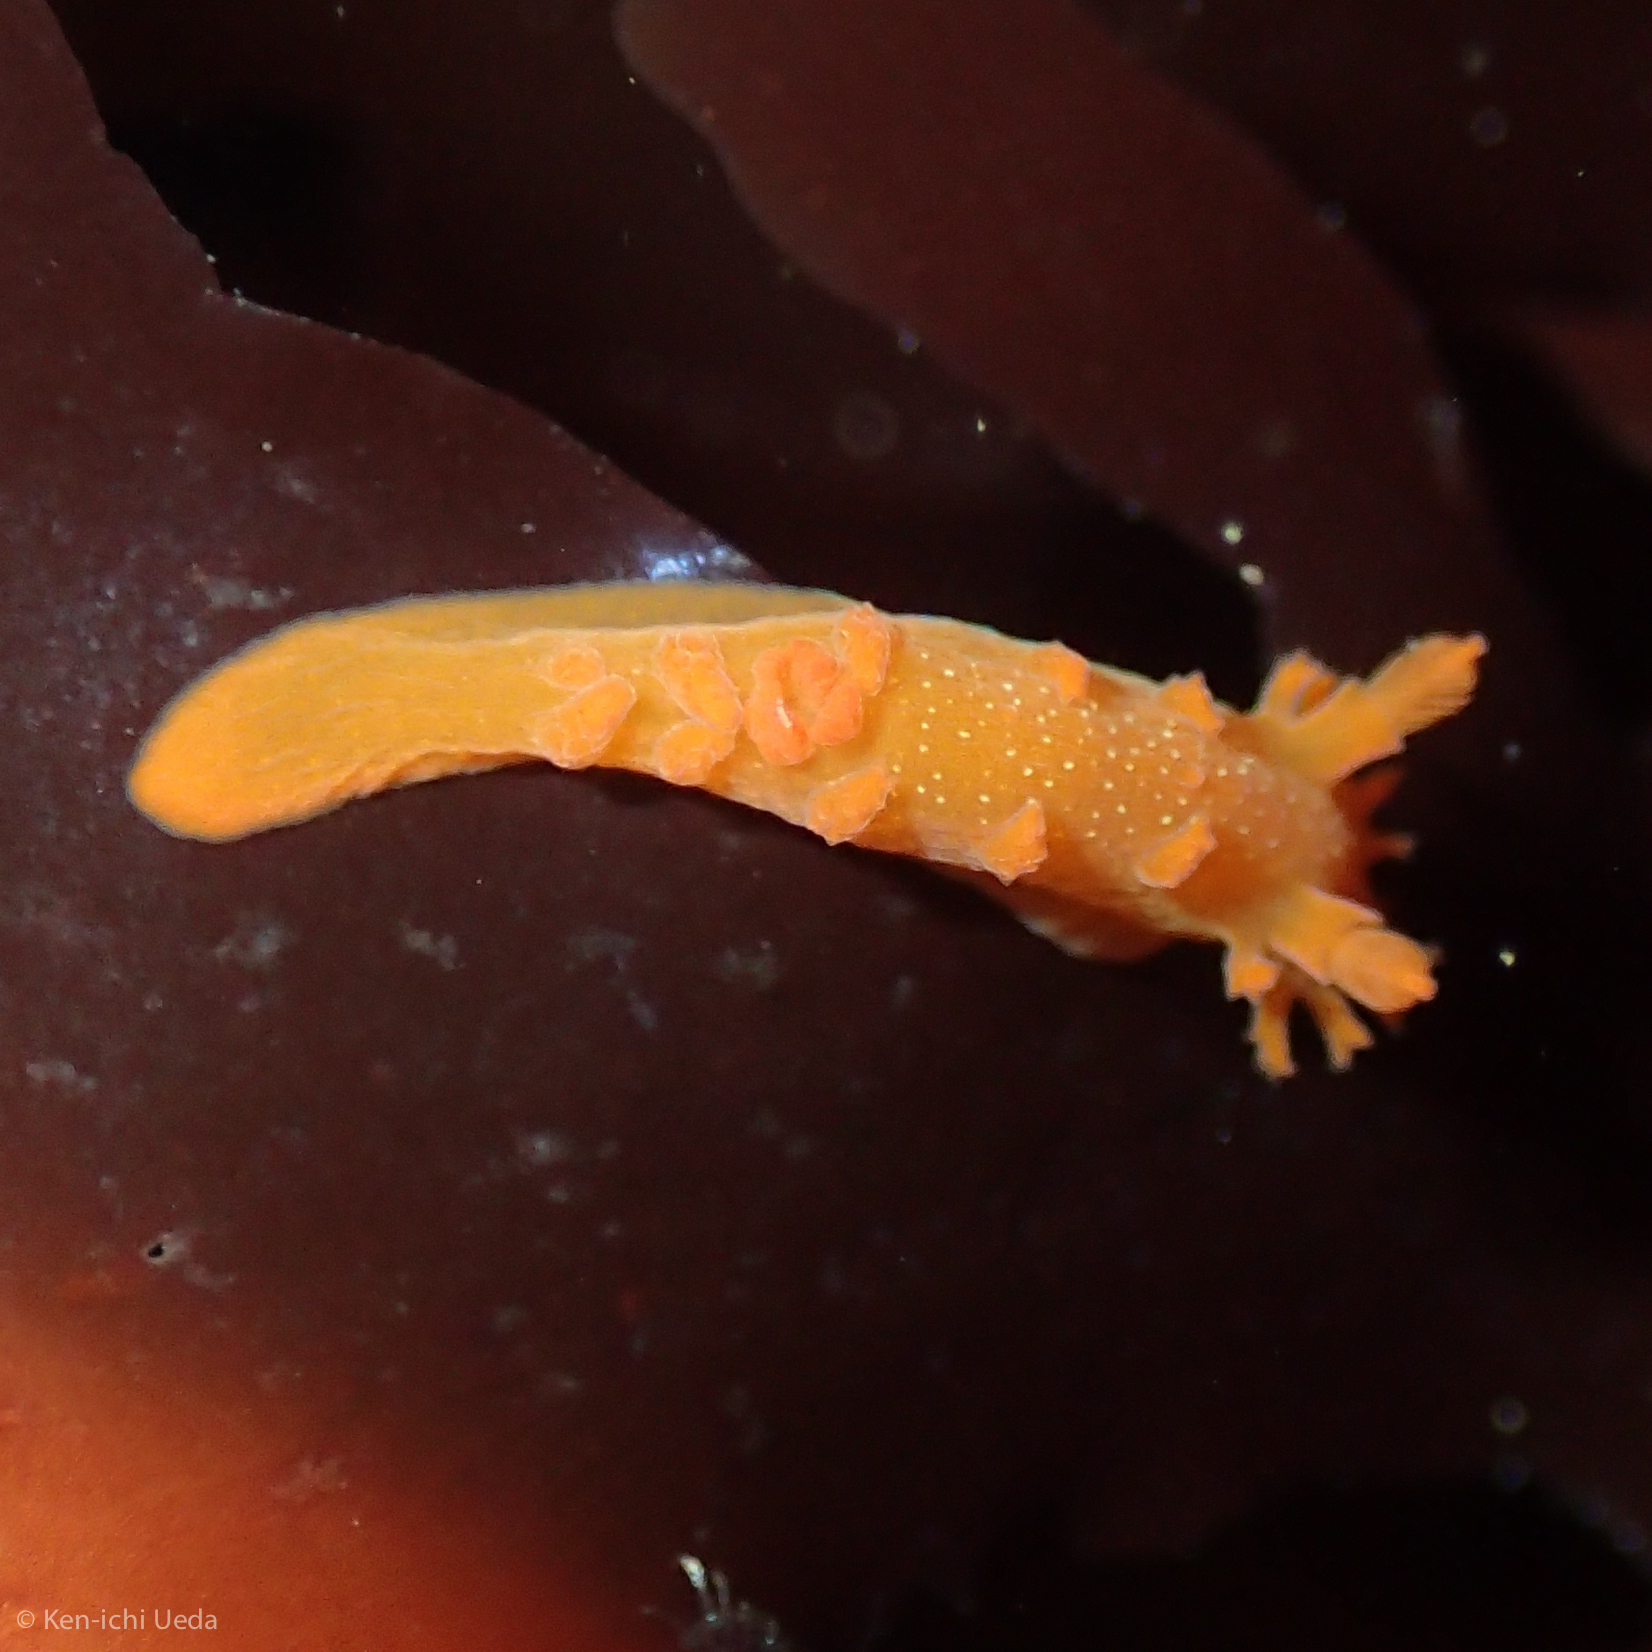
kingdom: Animalia
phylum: Mollusca
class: Gastropoda
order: Nudibranchia
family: Polyceridae
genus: Triopha
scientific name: Triopha maculata
